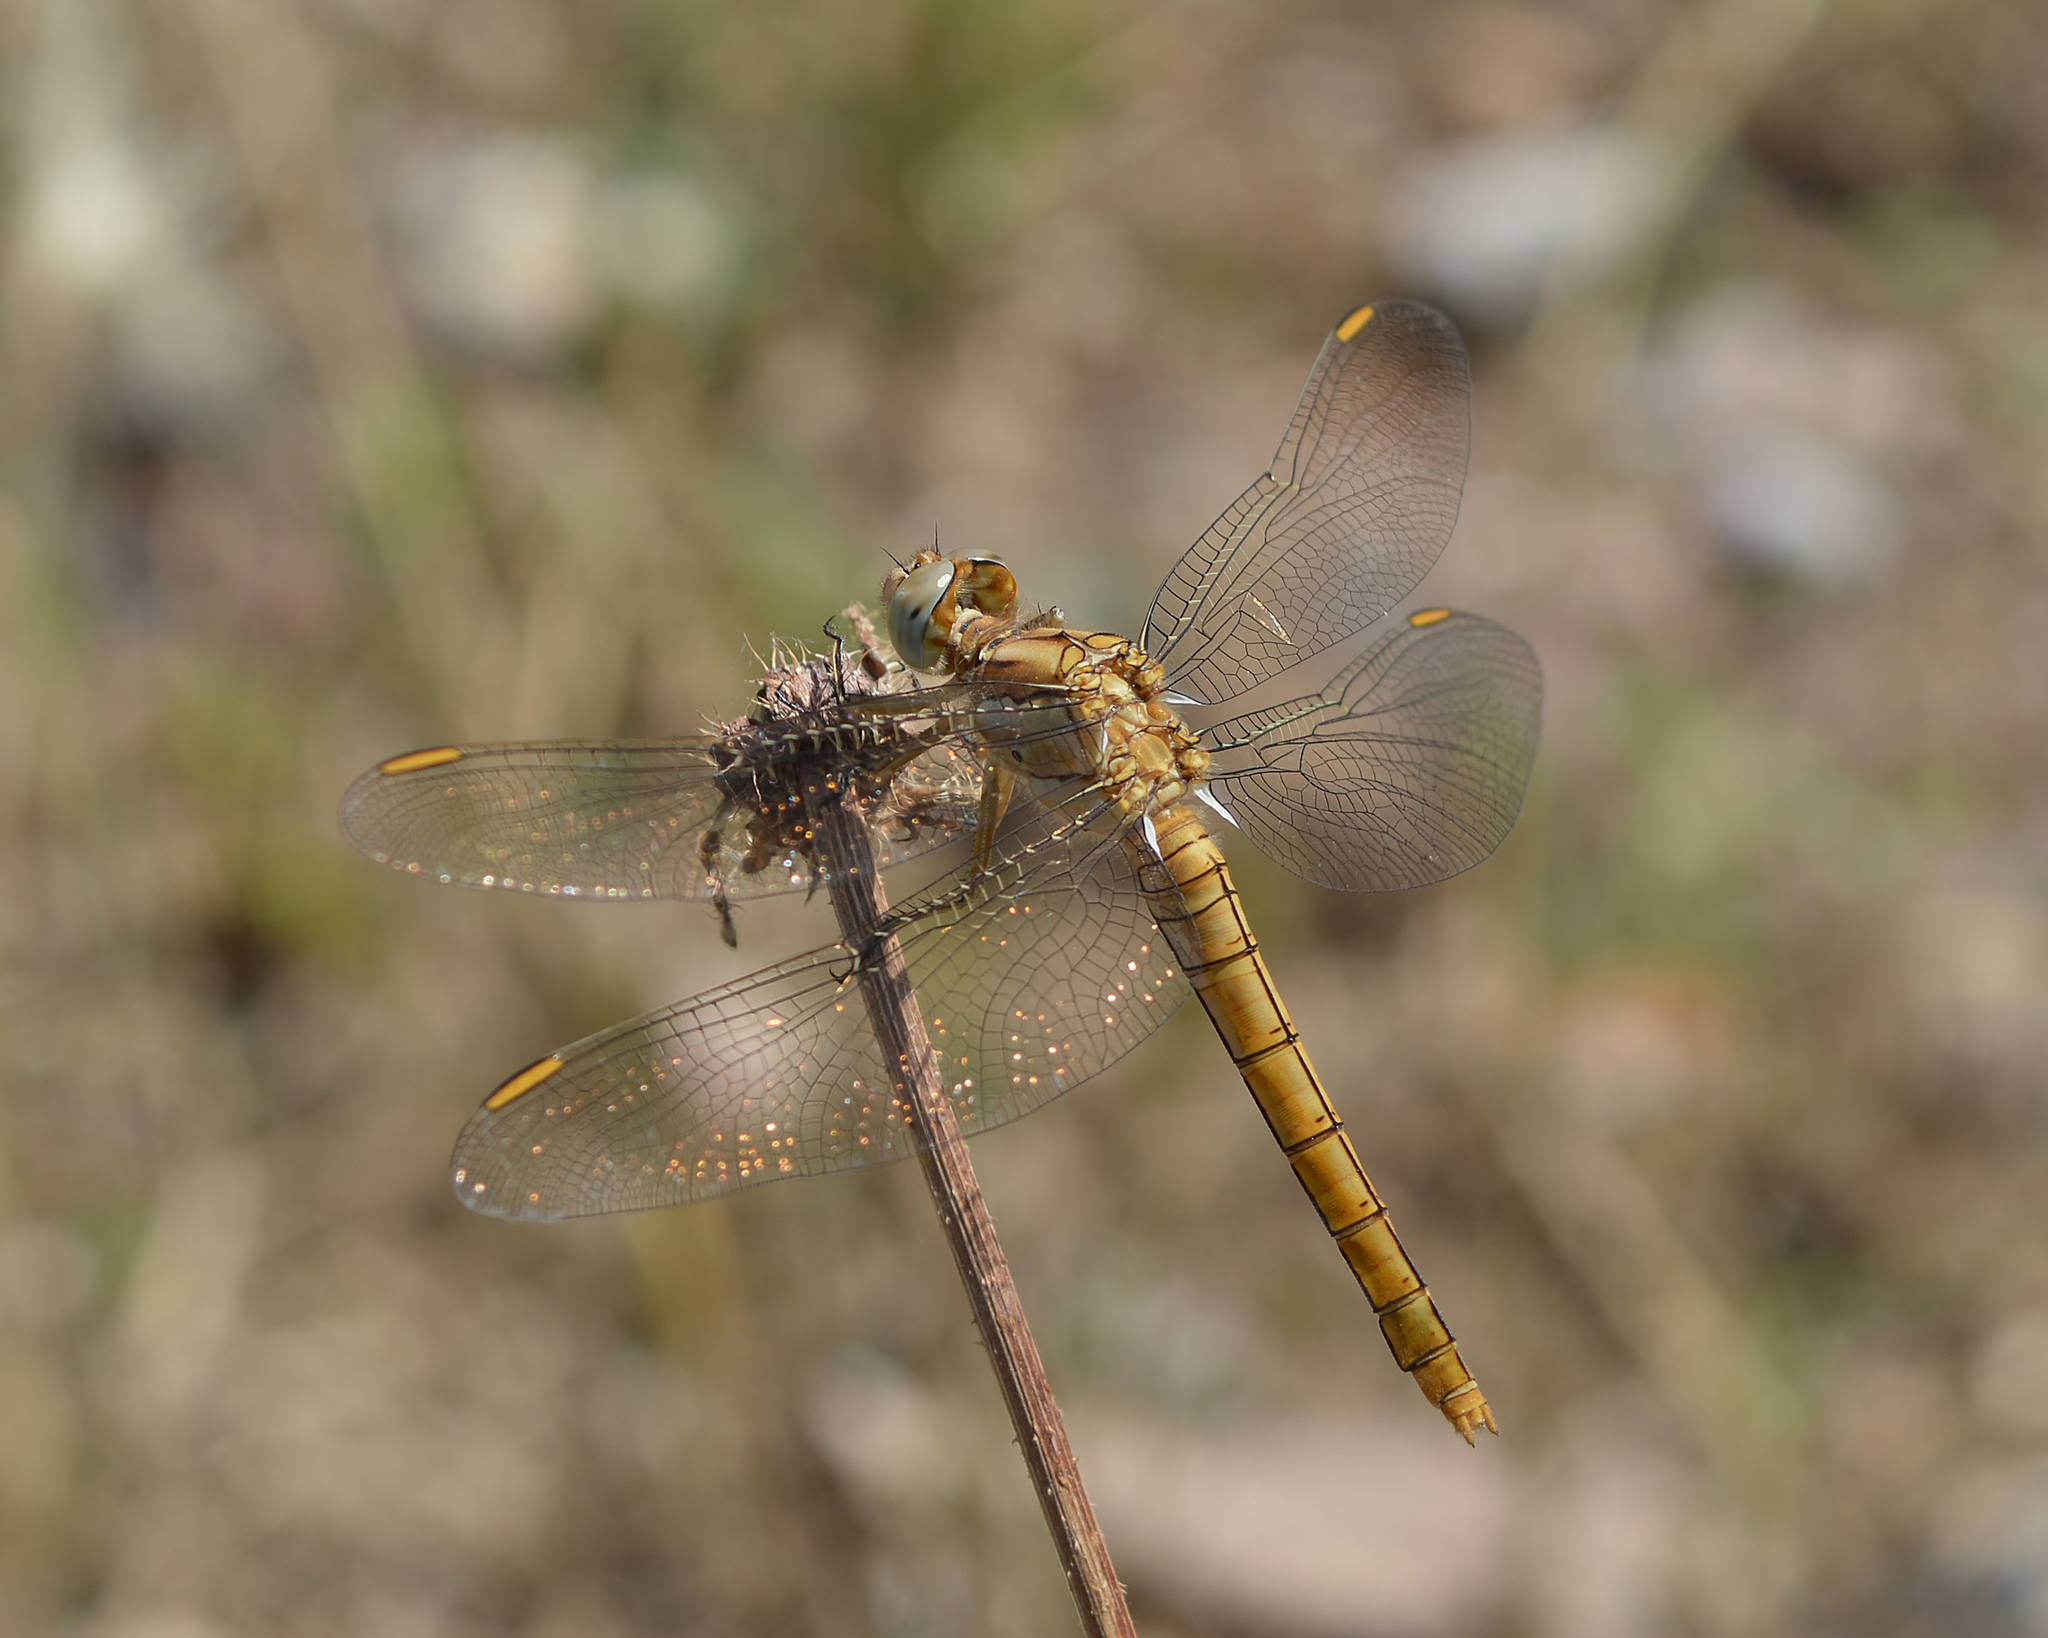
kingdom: Animalia
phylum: Arthropoda
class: Insecta
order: Odonata
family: Libellulidae
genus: Orthetrum
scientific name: Orthetrum brunneum
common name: Southern skimmer
